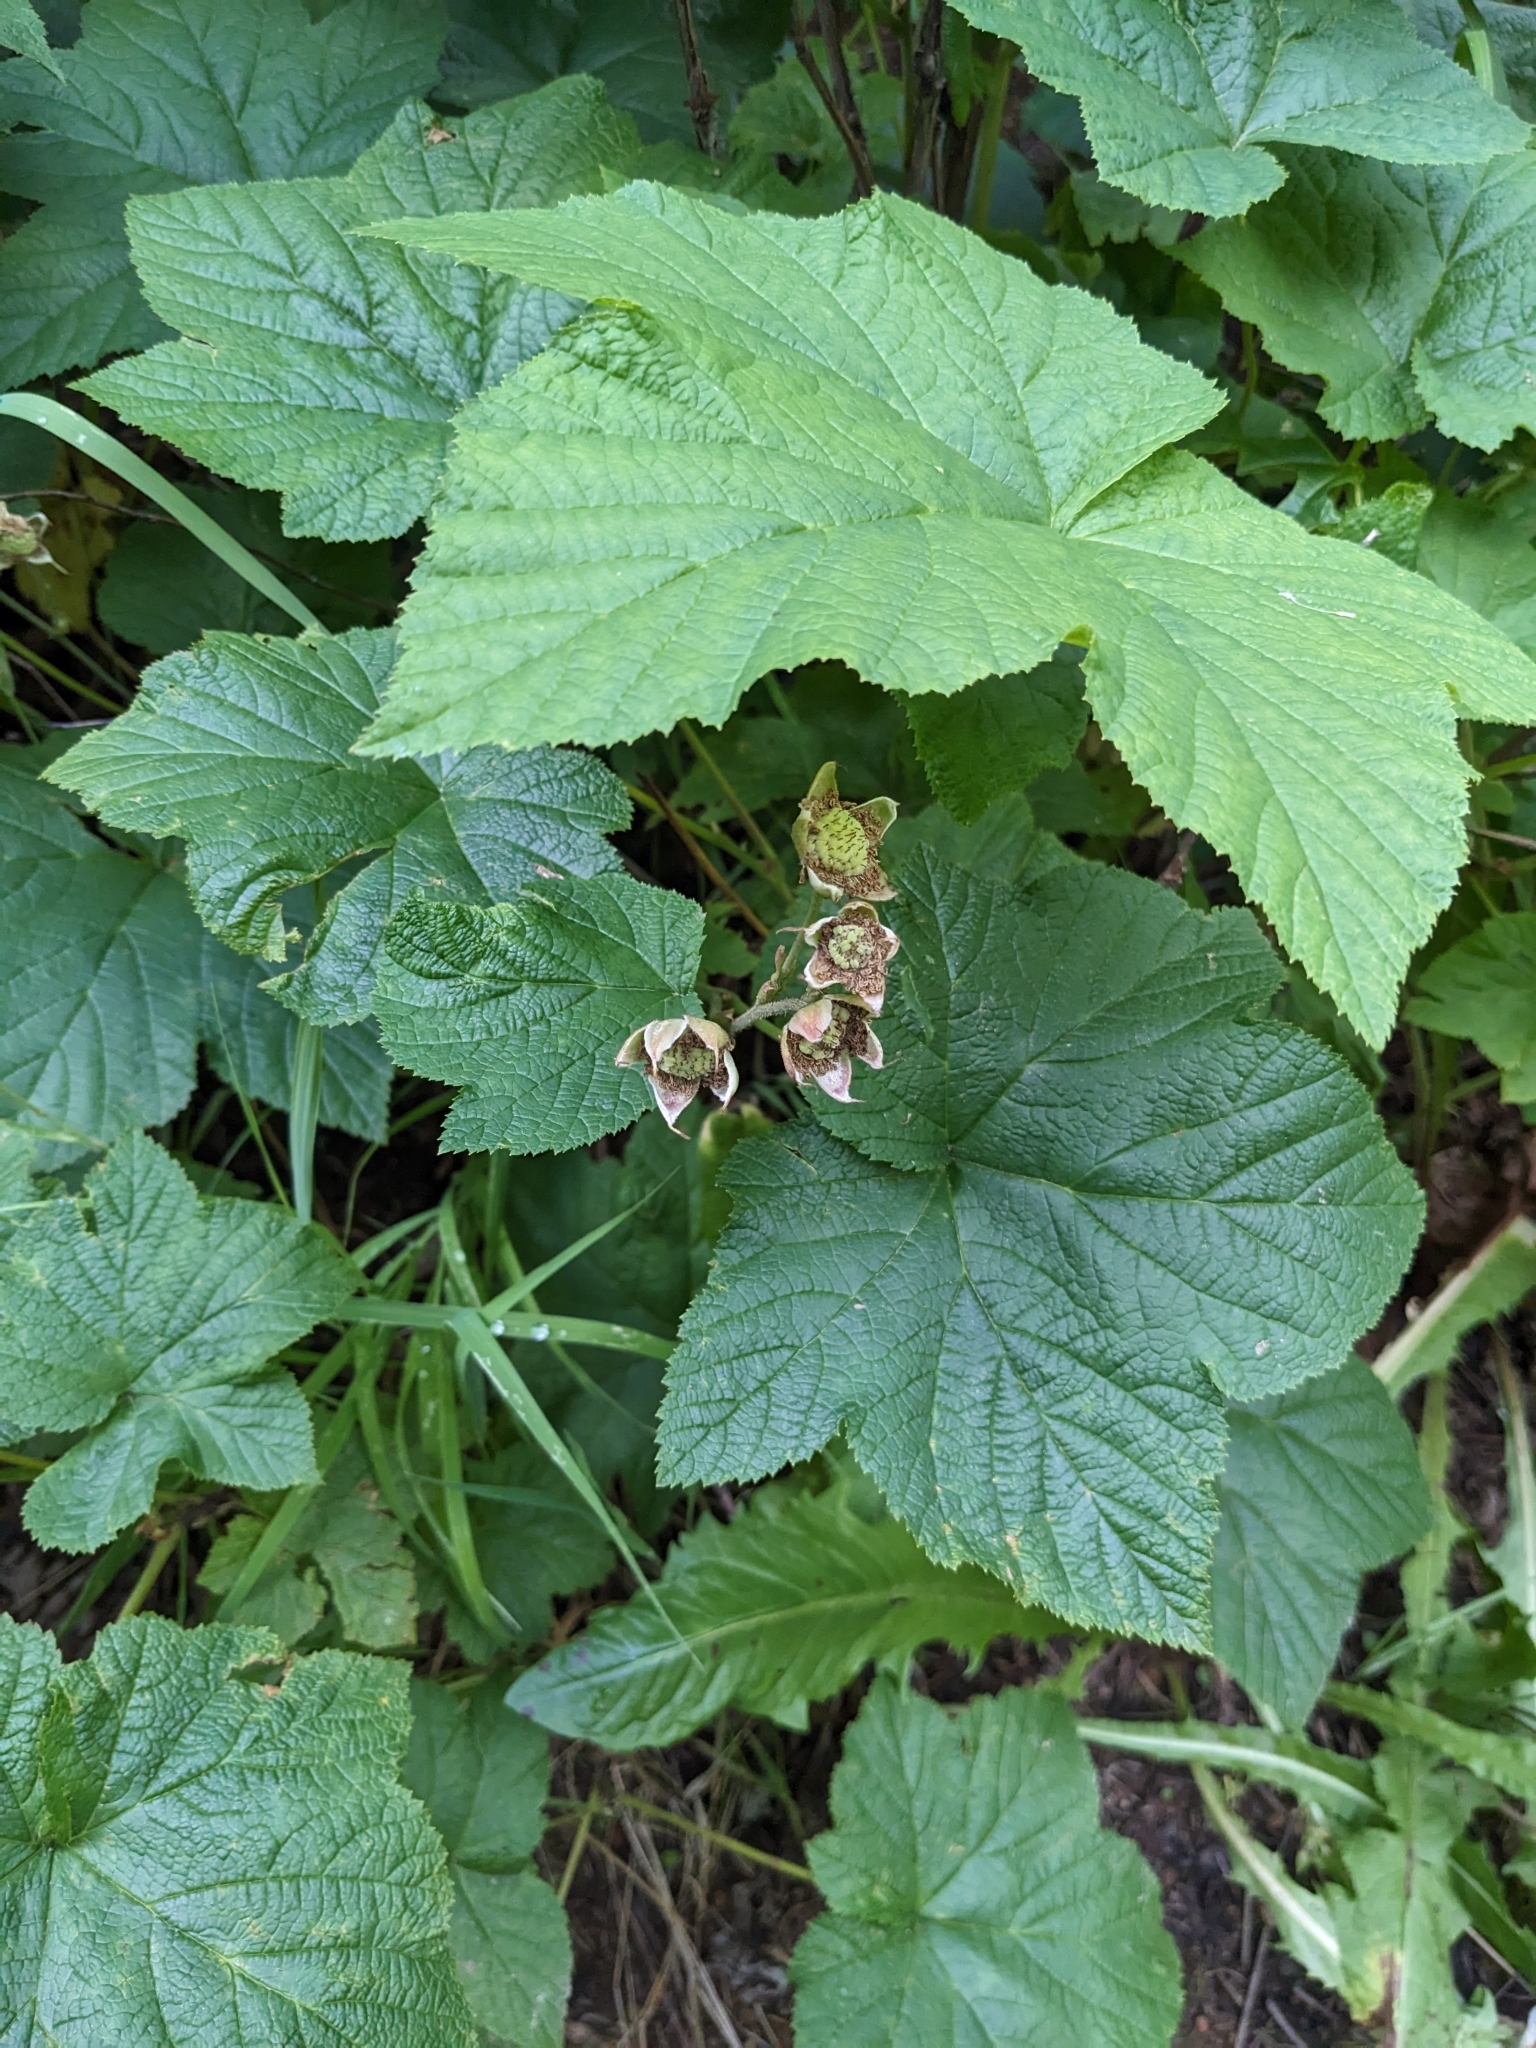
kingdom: Plantae
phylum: Tracheophyta
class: Magnoliopsida
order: Rosales
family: Rosaceae
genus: Rubus
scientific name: Rubus parviflorus
